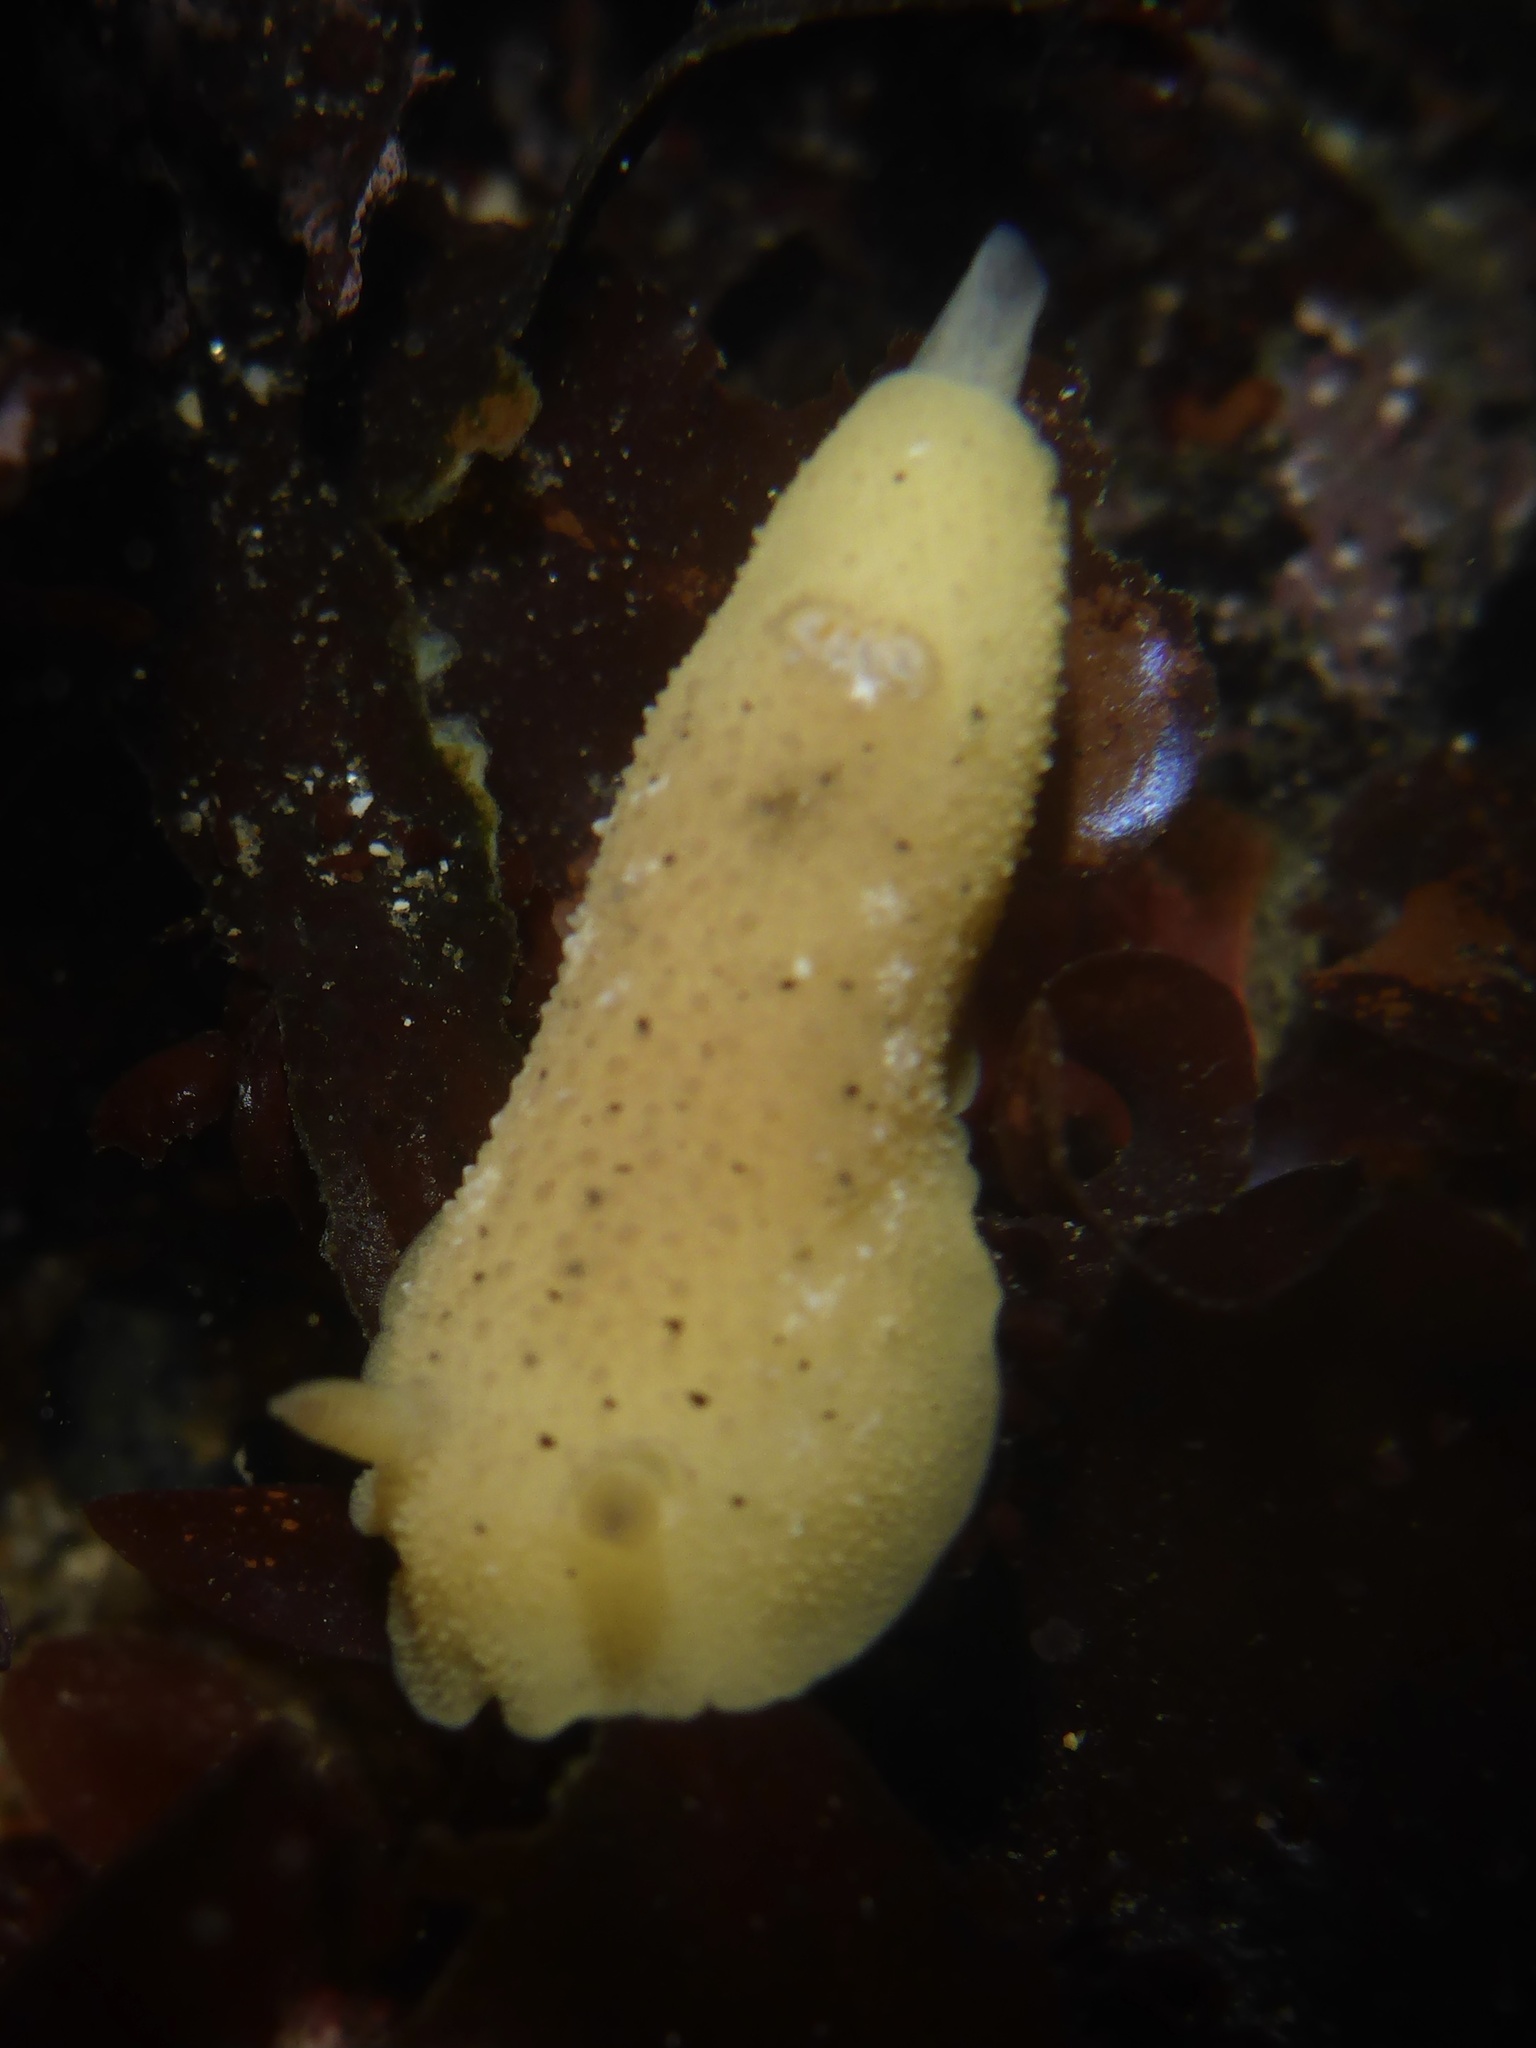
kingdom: Animalia
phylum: Mollusca
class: Gastropoda
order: Nudibranchia
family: Discodorididae
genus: Geitodoris
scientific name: Geitodoris heathi
